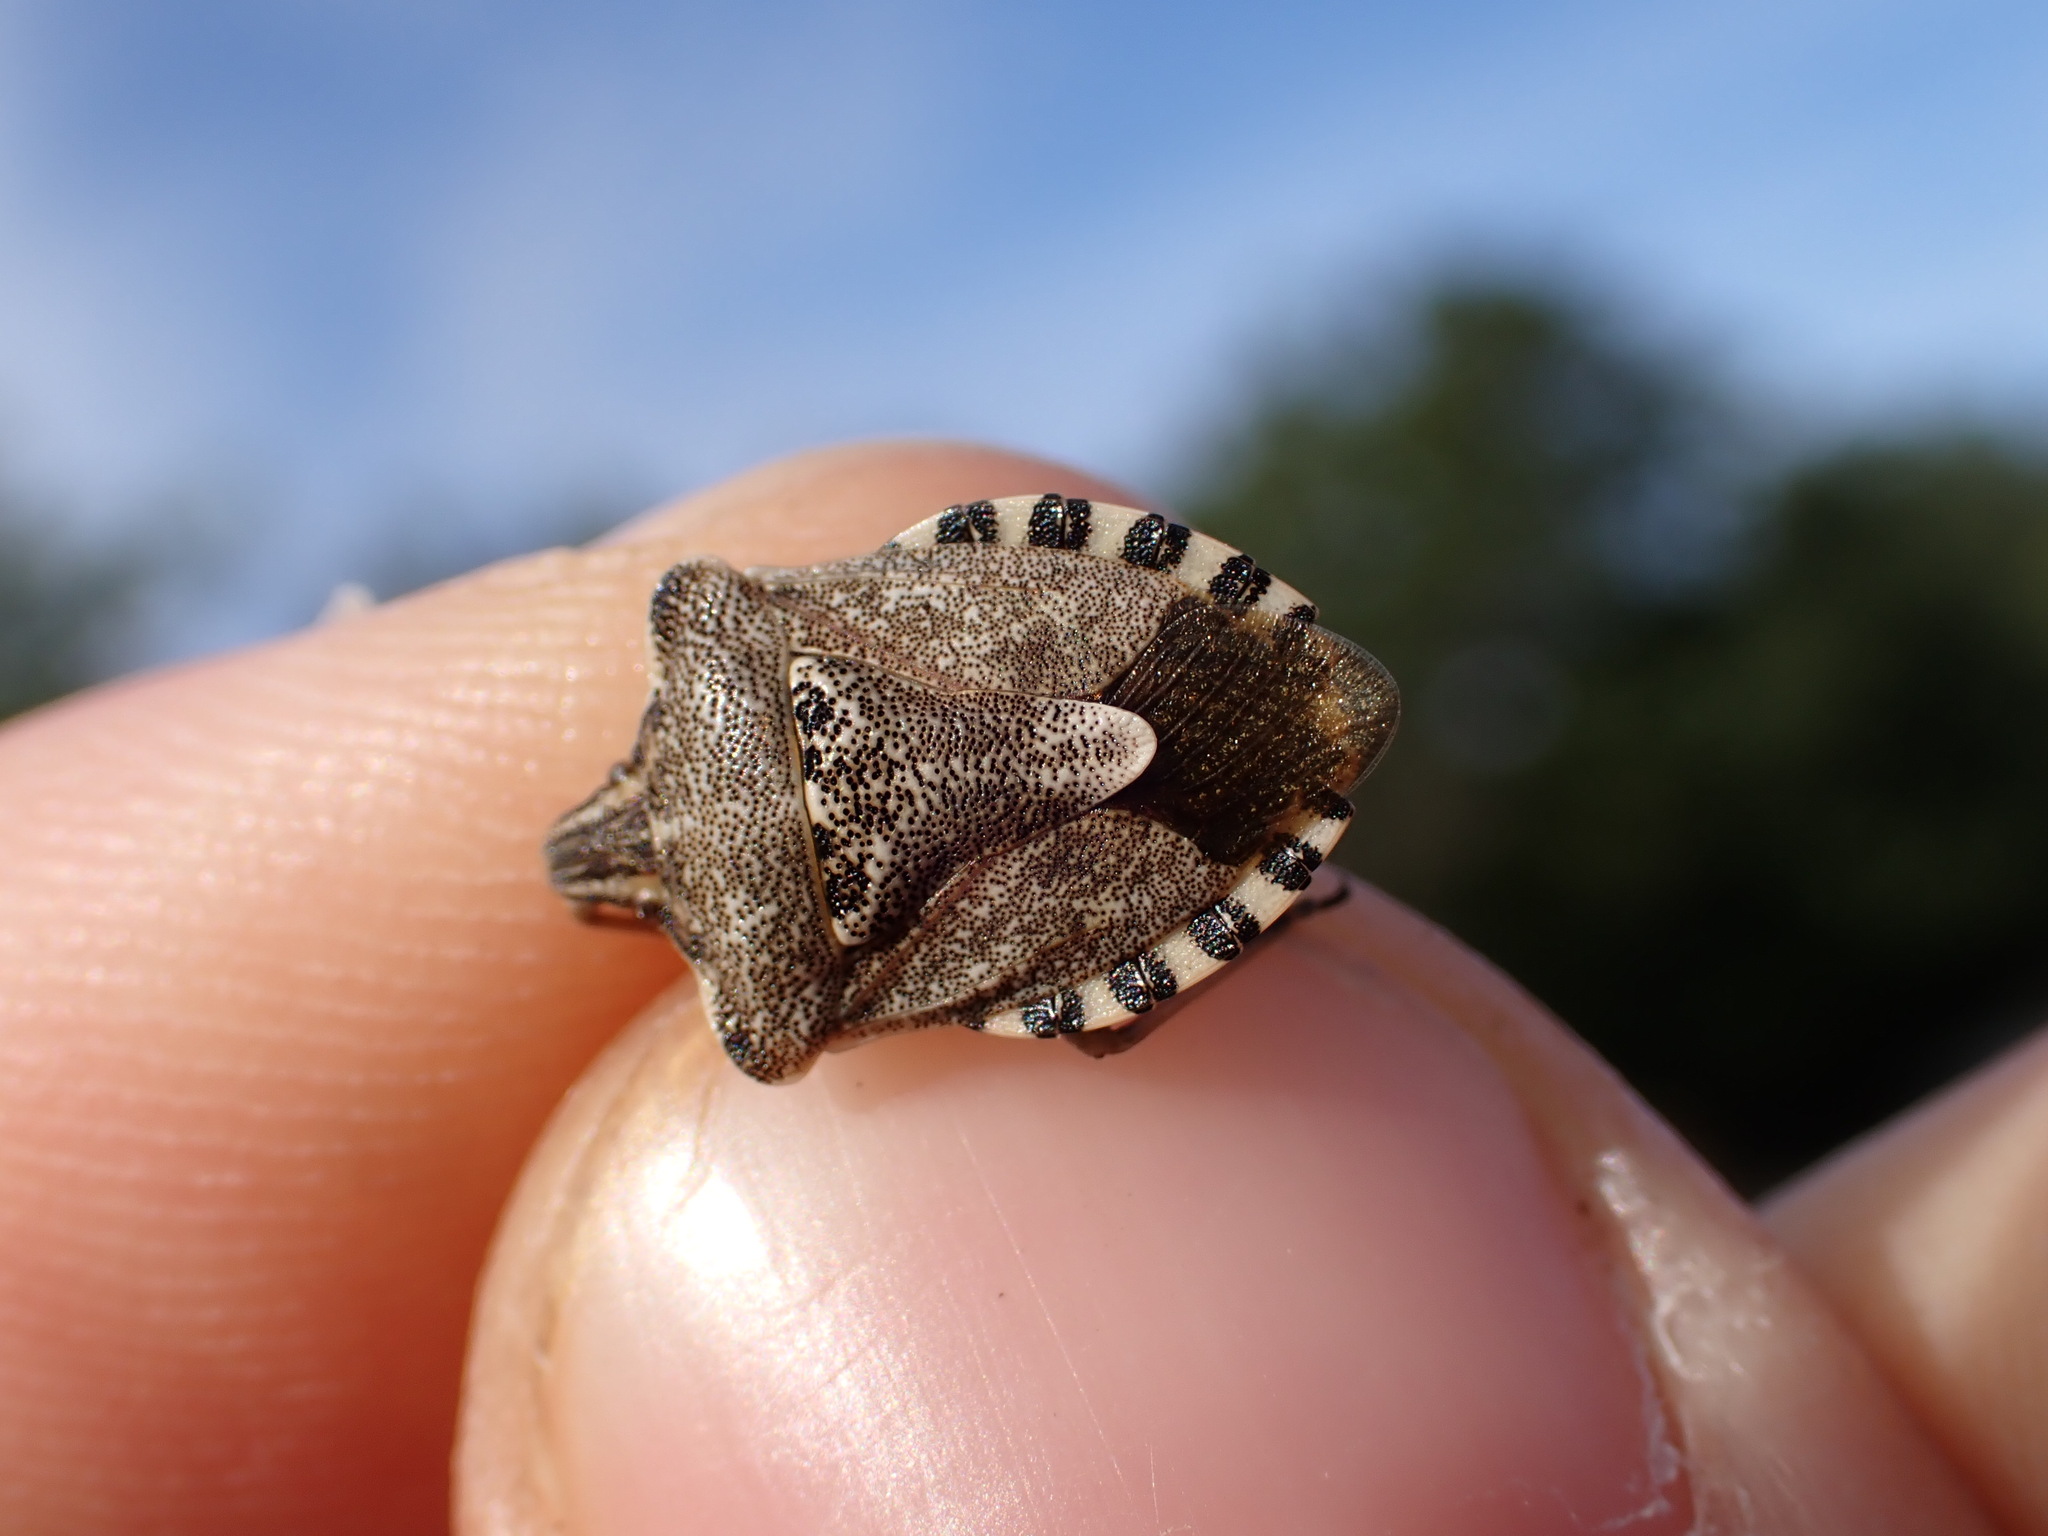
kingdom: Animalia
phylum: Arthropoda
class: Insecta
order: Hemiptera
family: Miridae
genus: Orthops
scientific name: Orthops kalmii
